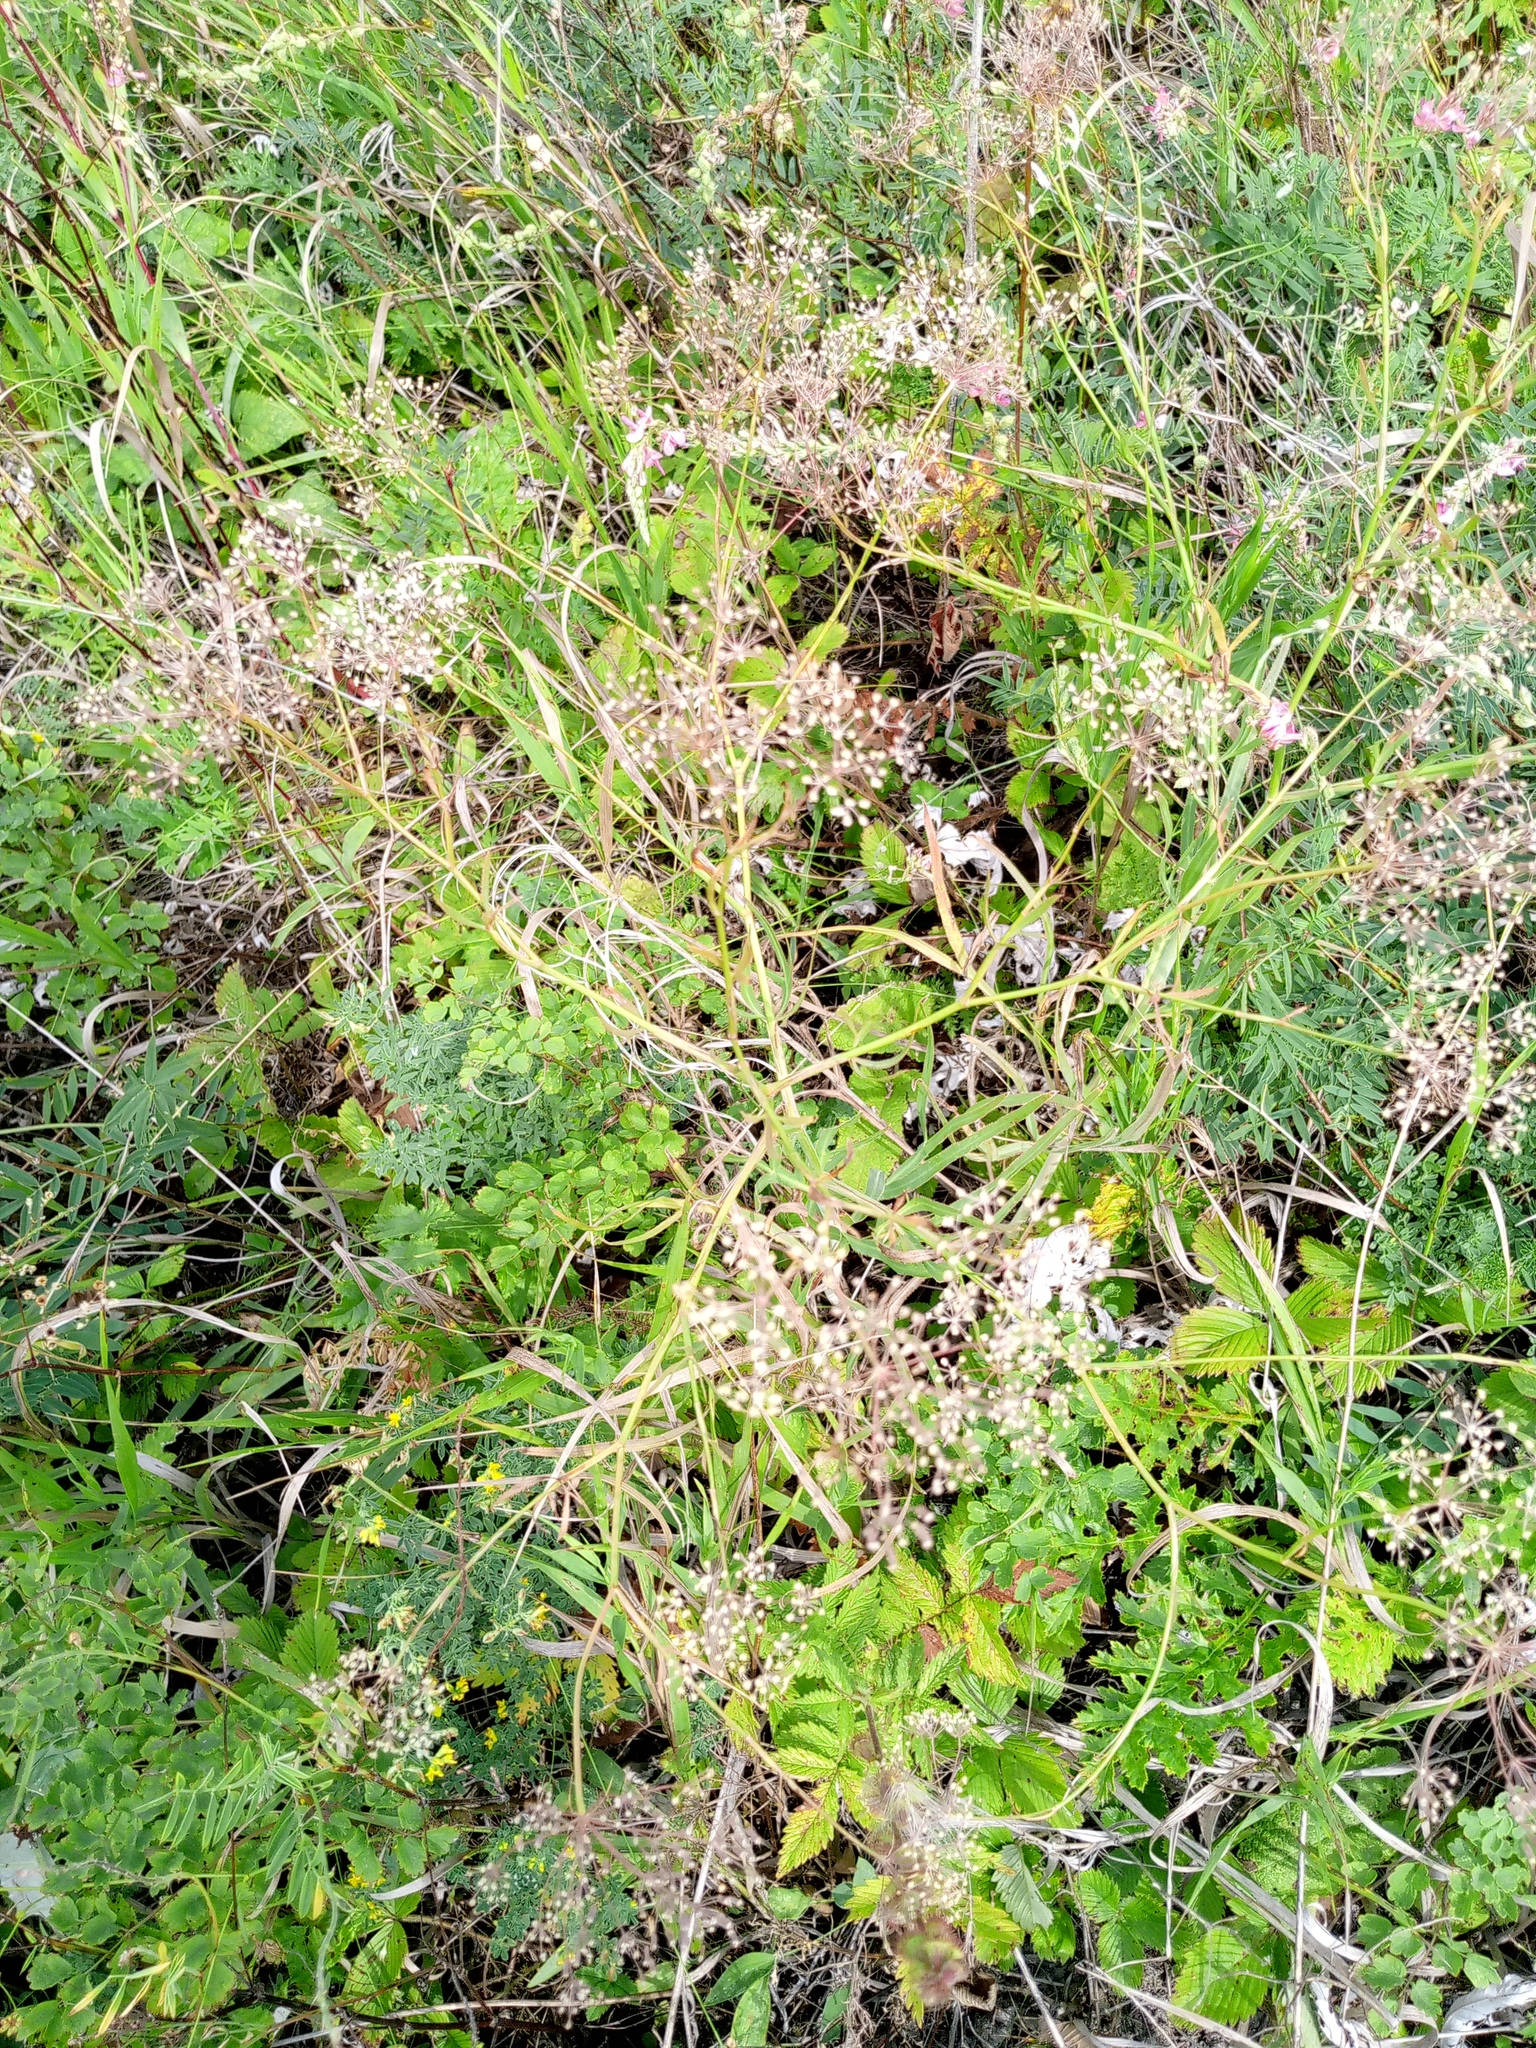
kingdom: Plantae
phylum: Tracheophyta
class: Magnoliopsida
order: Apiales
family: Apiaceae
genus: Falcaria
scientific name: Falcaria vulgaris
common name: Longleaf
